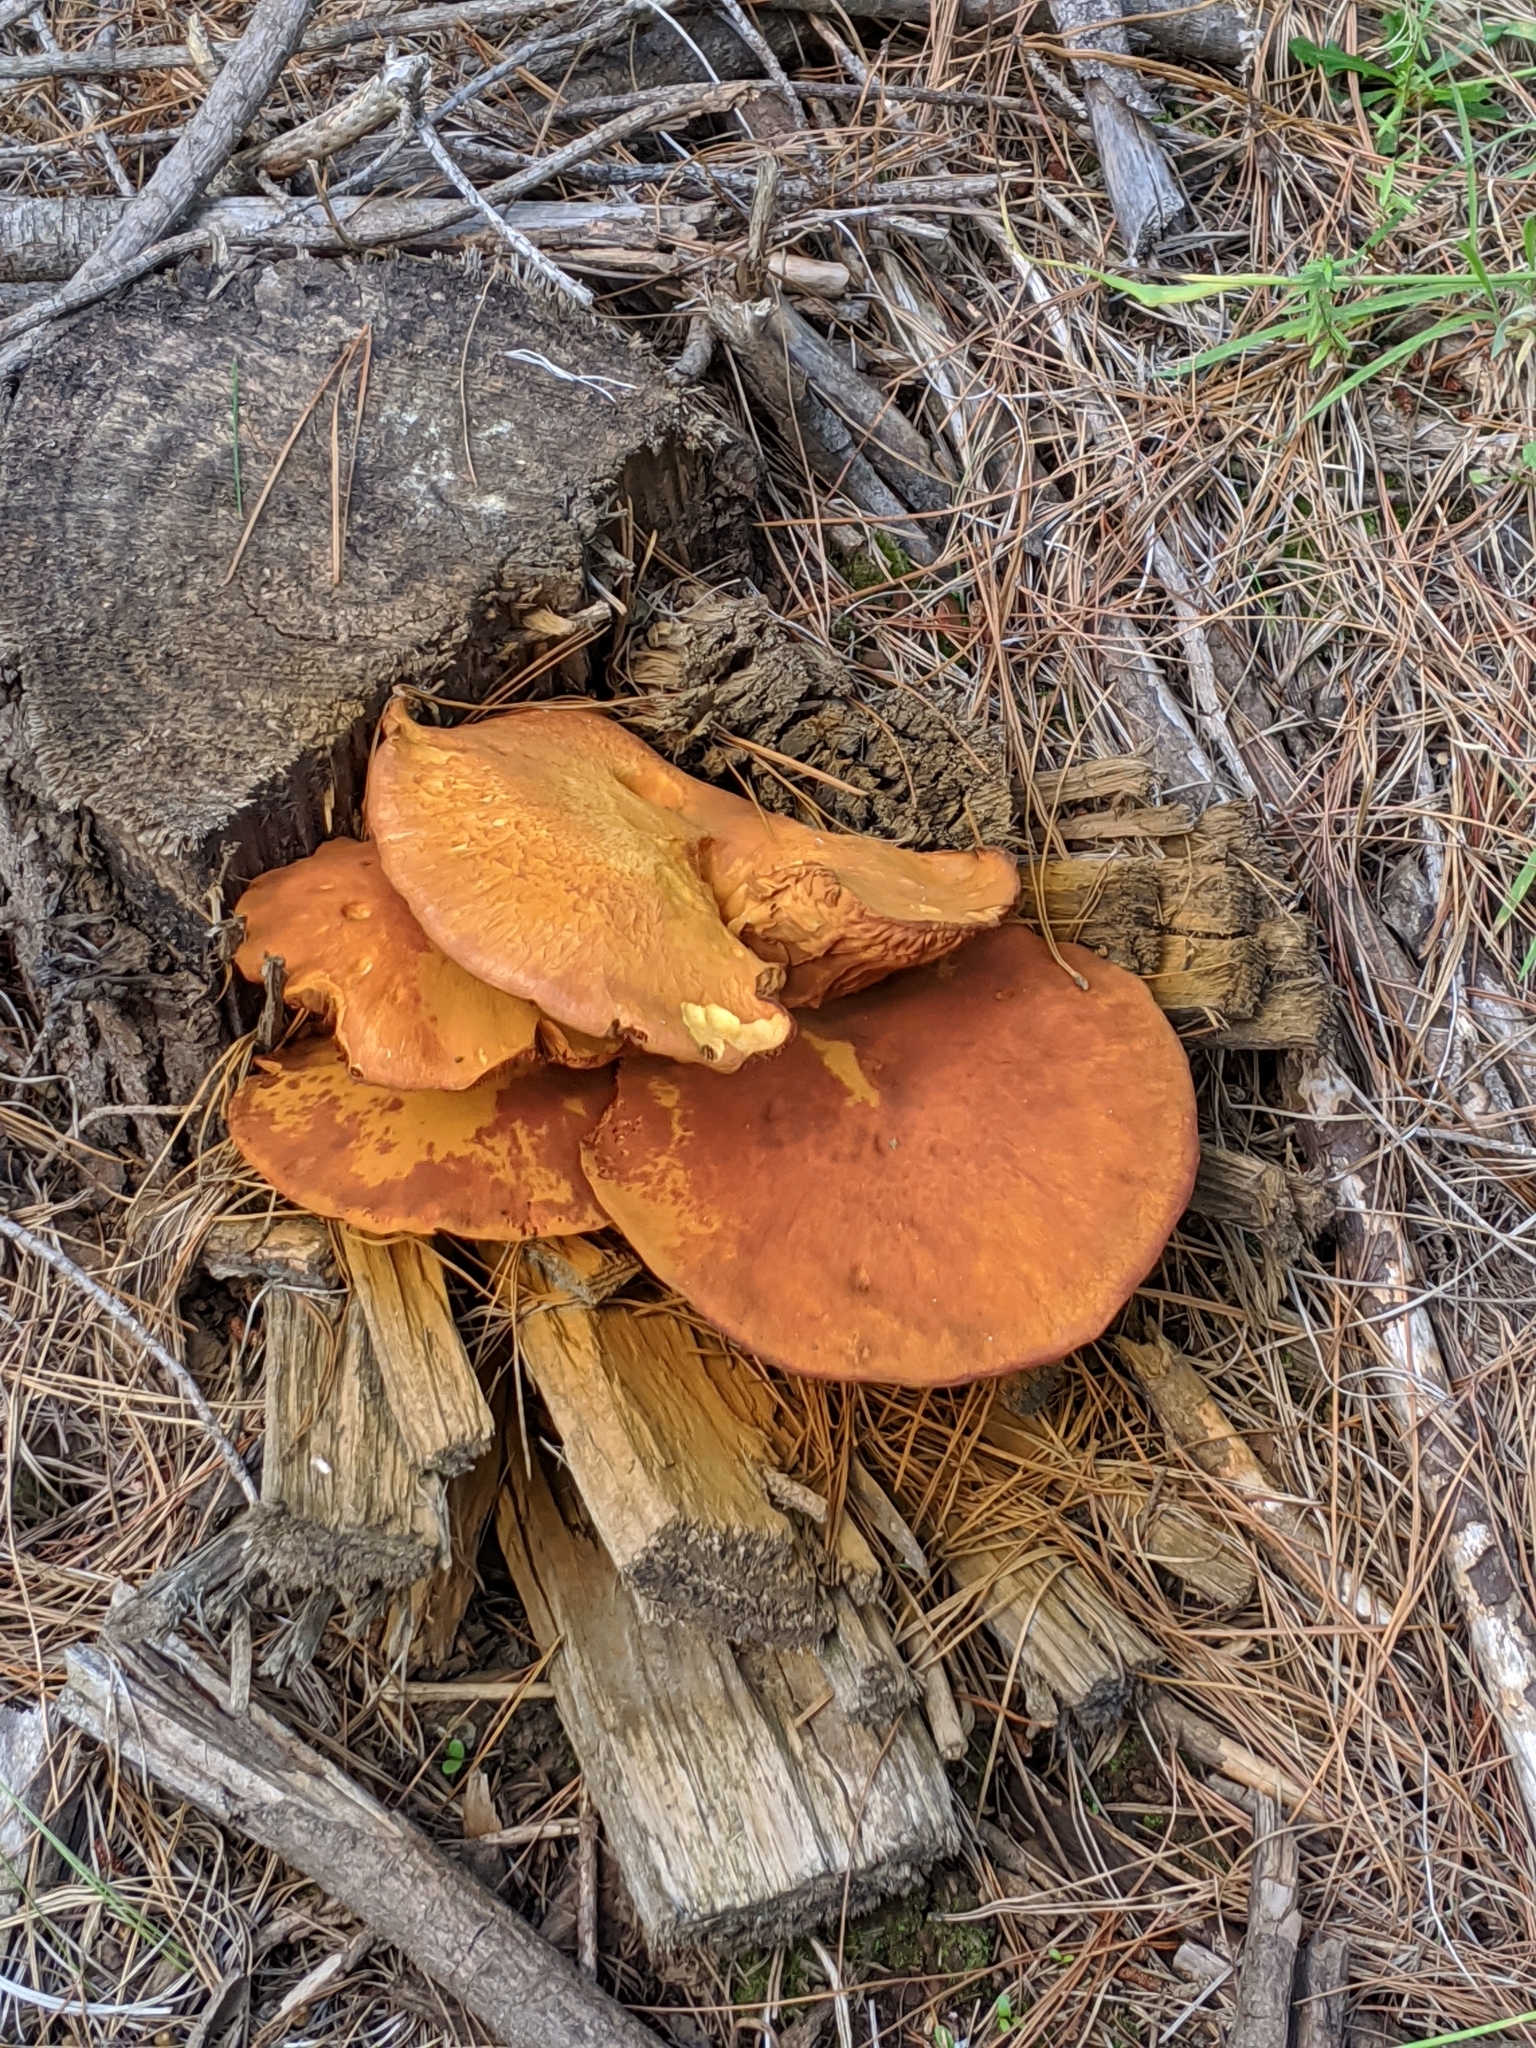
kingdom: Fungi
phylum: Basidiomycota
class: Agaricomycetes
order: Agaricales
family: Hymenogastraceae
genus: Gymnopilus
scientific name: Gymnopilus junonius
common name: Spectacular rustgill
